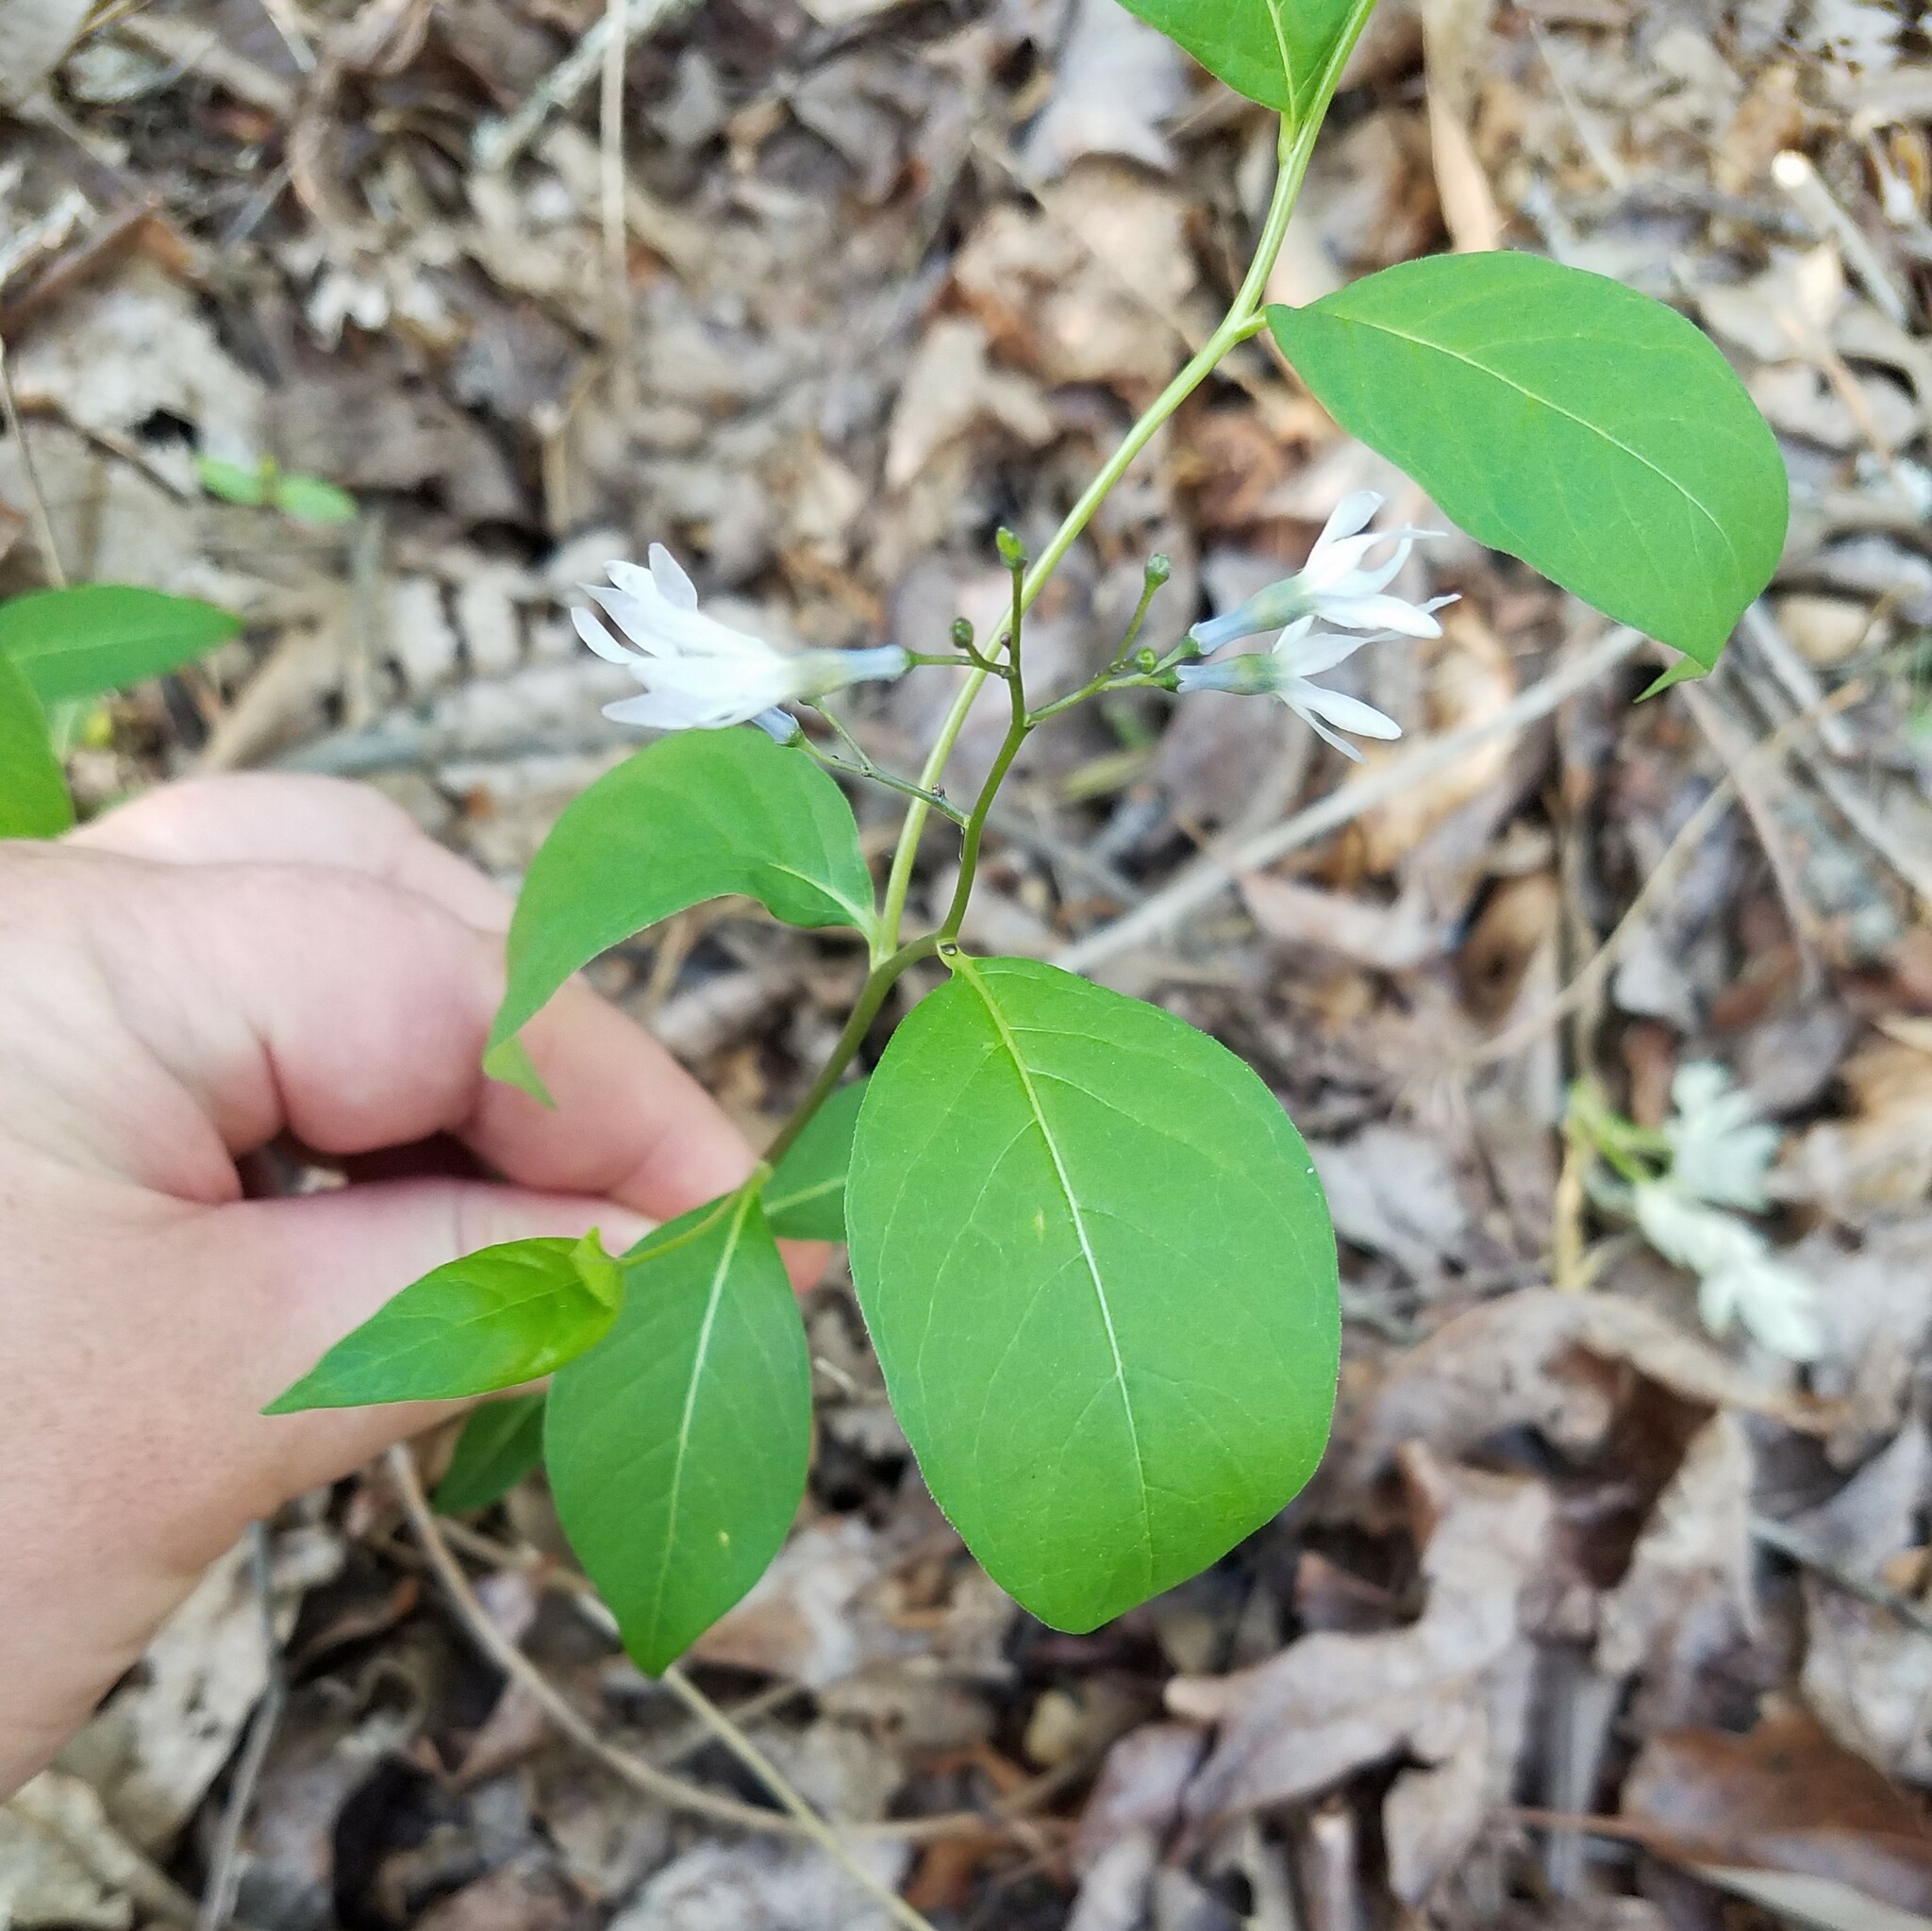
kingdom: Plantae
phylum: Tracheophyta
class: Magnoliopsida
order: Gentianales
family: Apocynaceae
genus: Amsonia
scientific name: Amsonia tabernaemontana
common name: Texas-star
